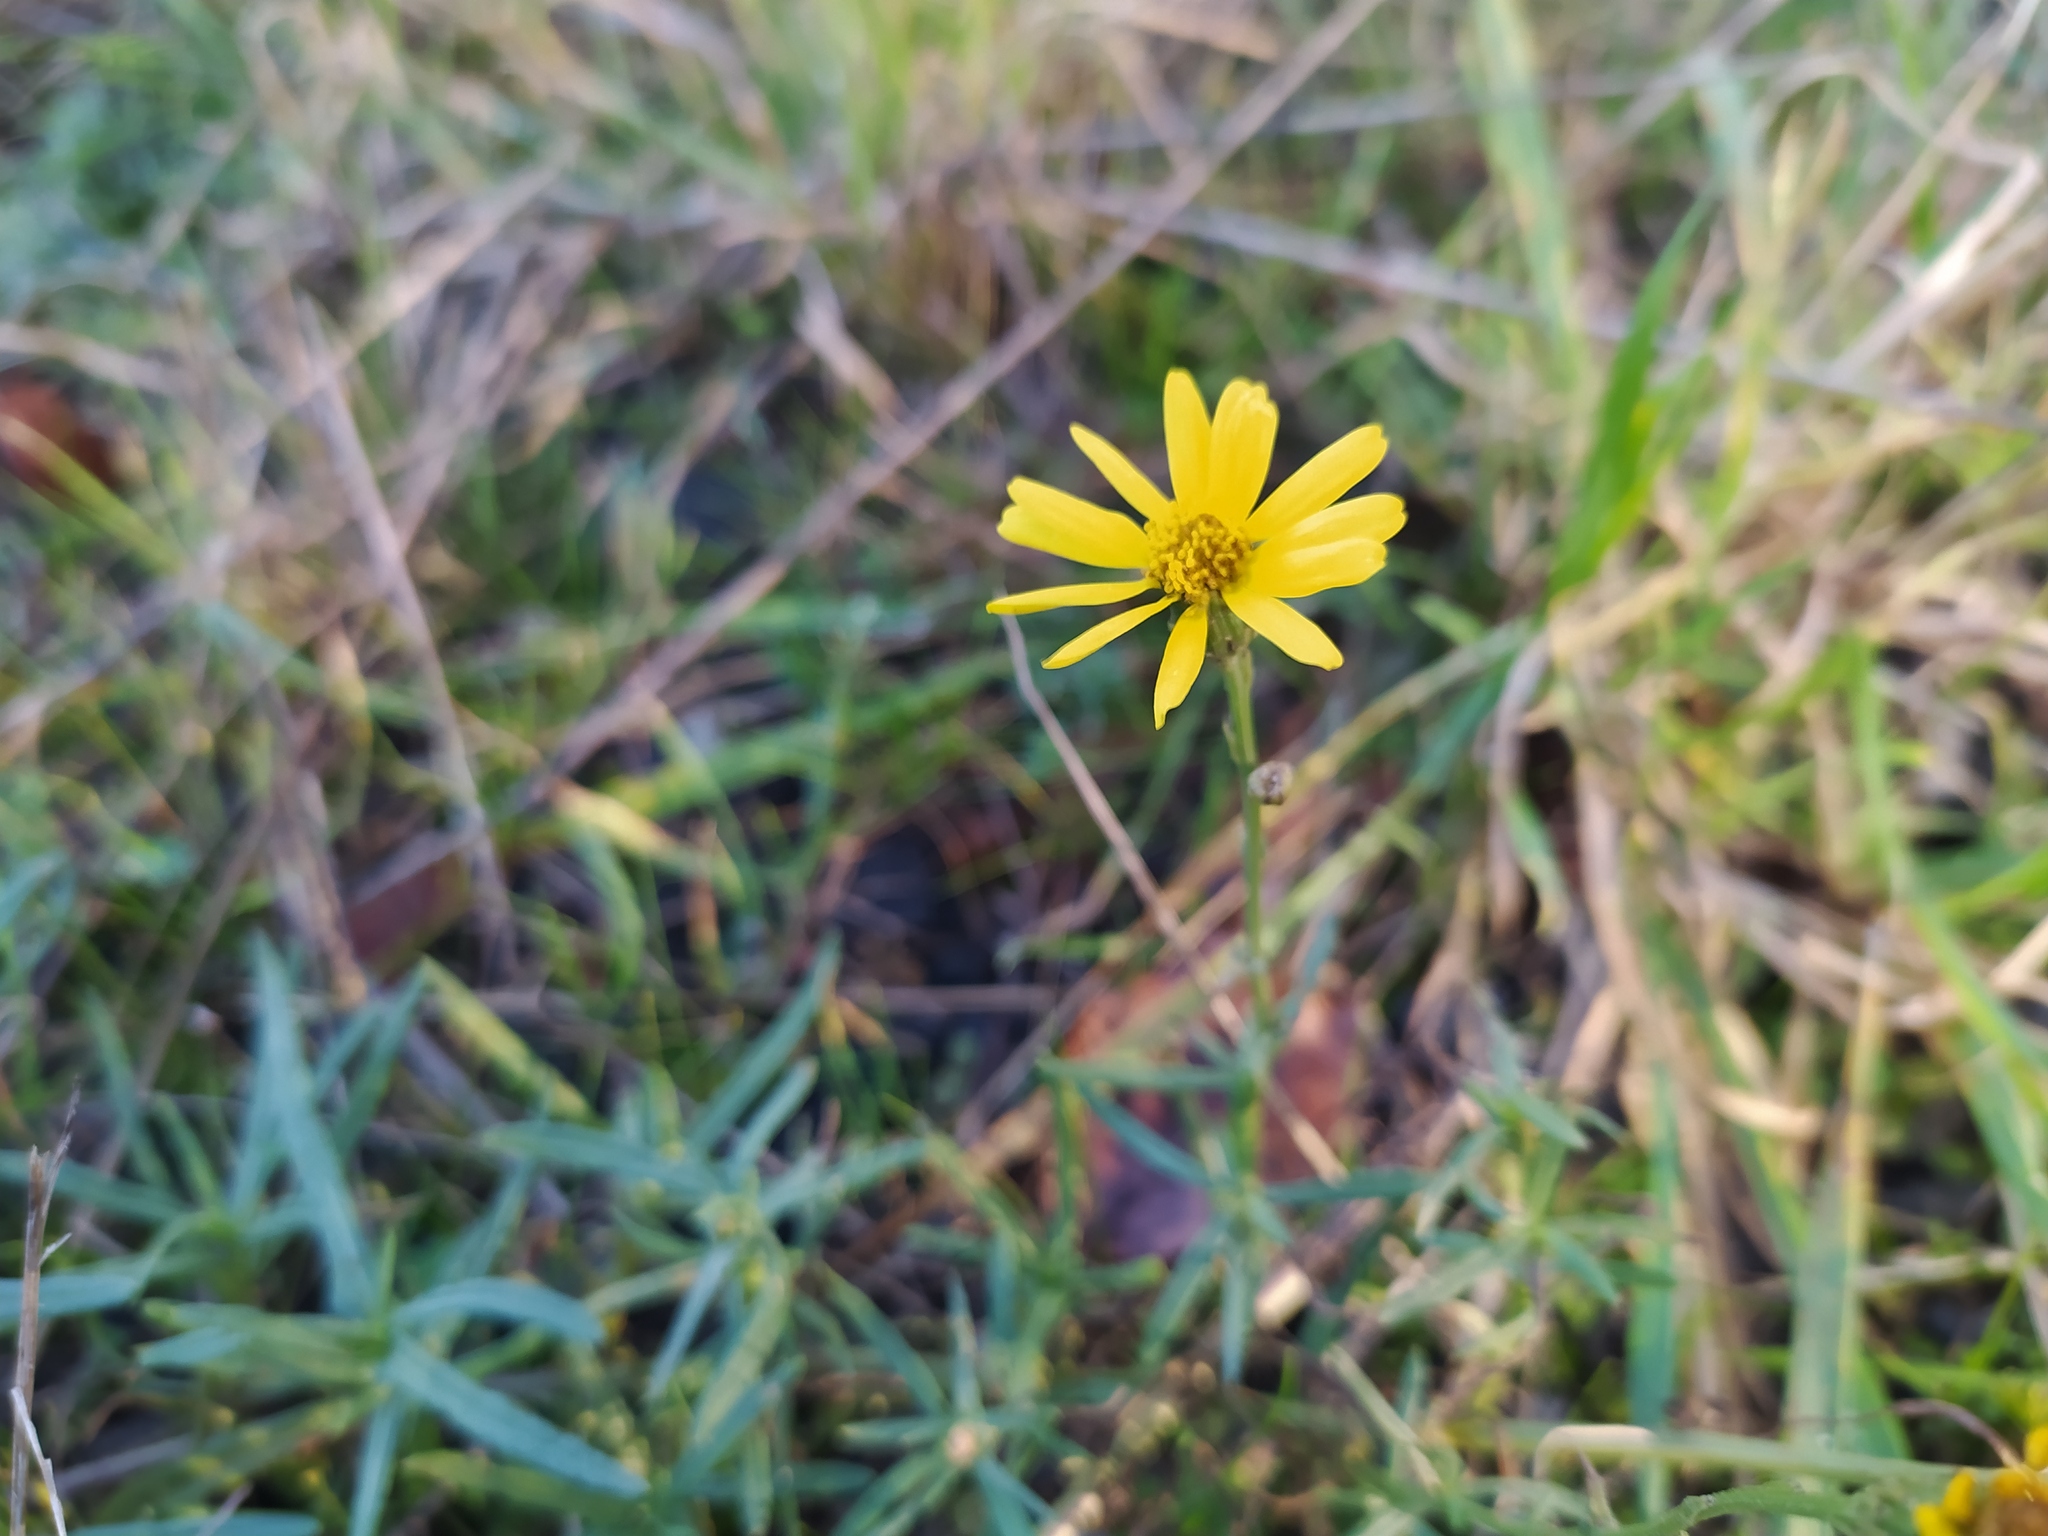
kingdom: Plantae
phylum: Tracheophyta
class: Magnoliopsida
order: Asterales
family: Asteraceae
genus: Senecio
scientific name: Senecio inaequidens
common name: Narrow-leaved ragwort
